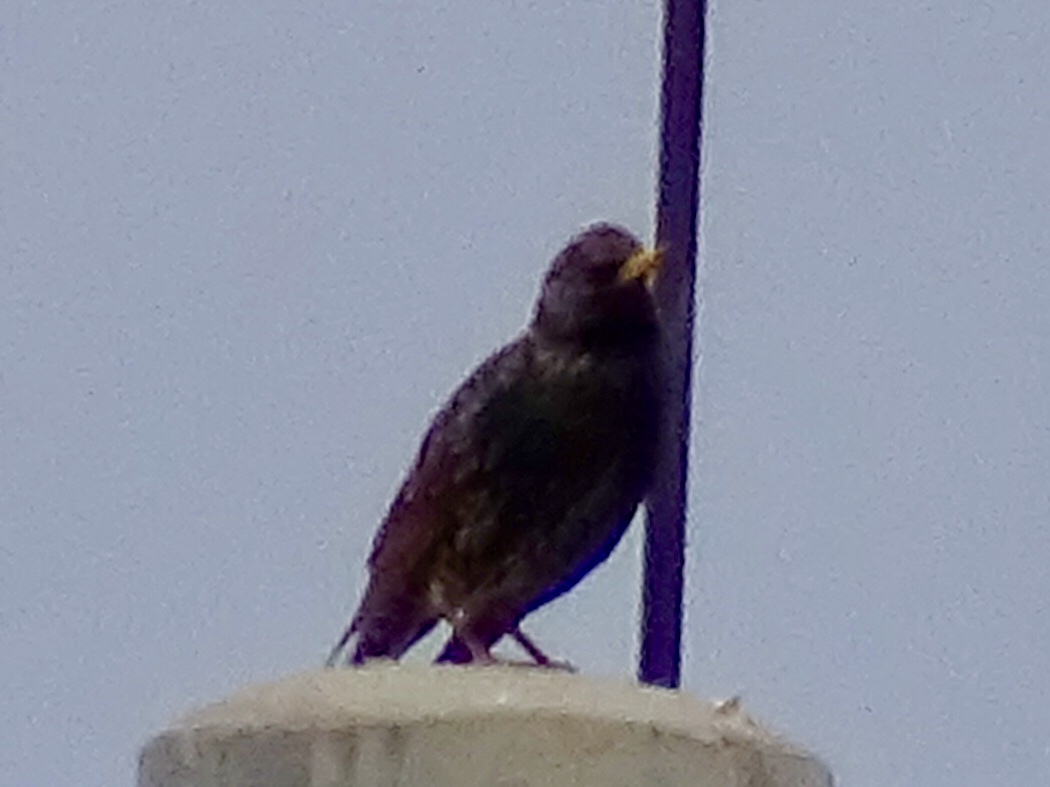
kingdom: Animalia
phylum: Chordata
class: Aves
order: Passeriformes
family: Sturnidae
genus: Sturnus
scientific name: Sturnus vulgaris
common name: Common starling
